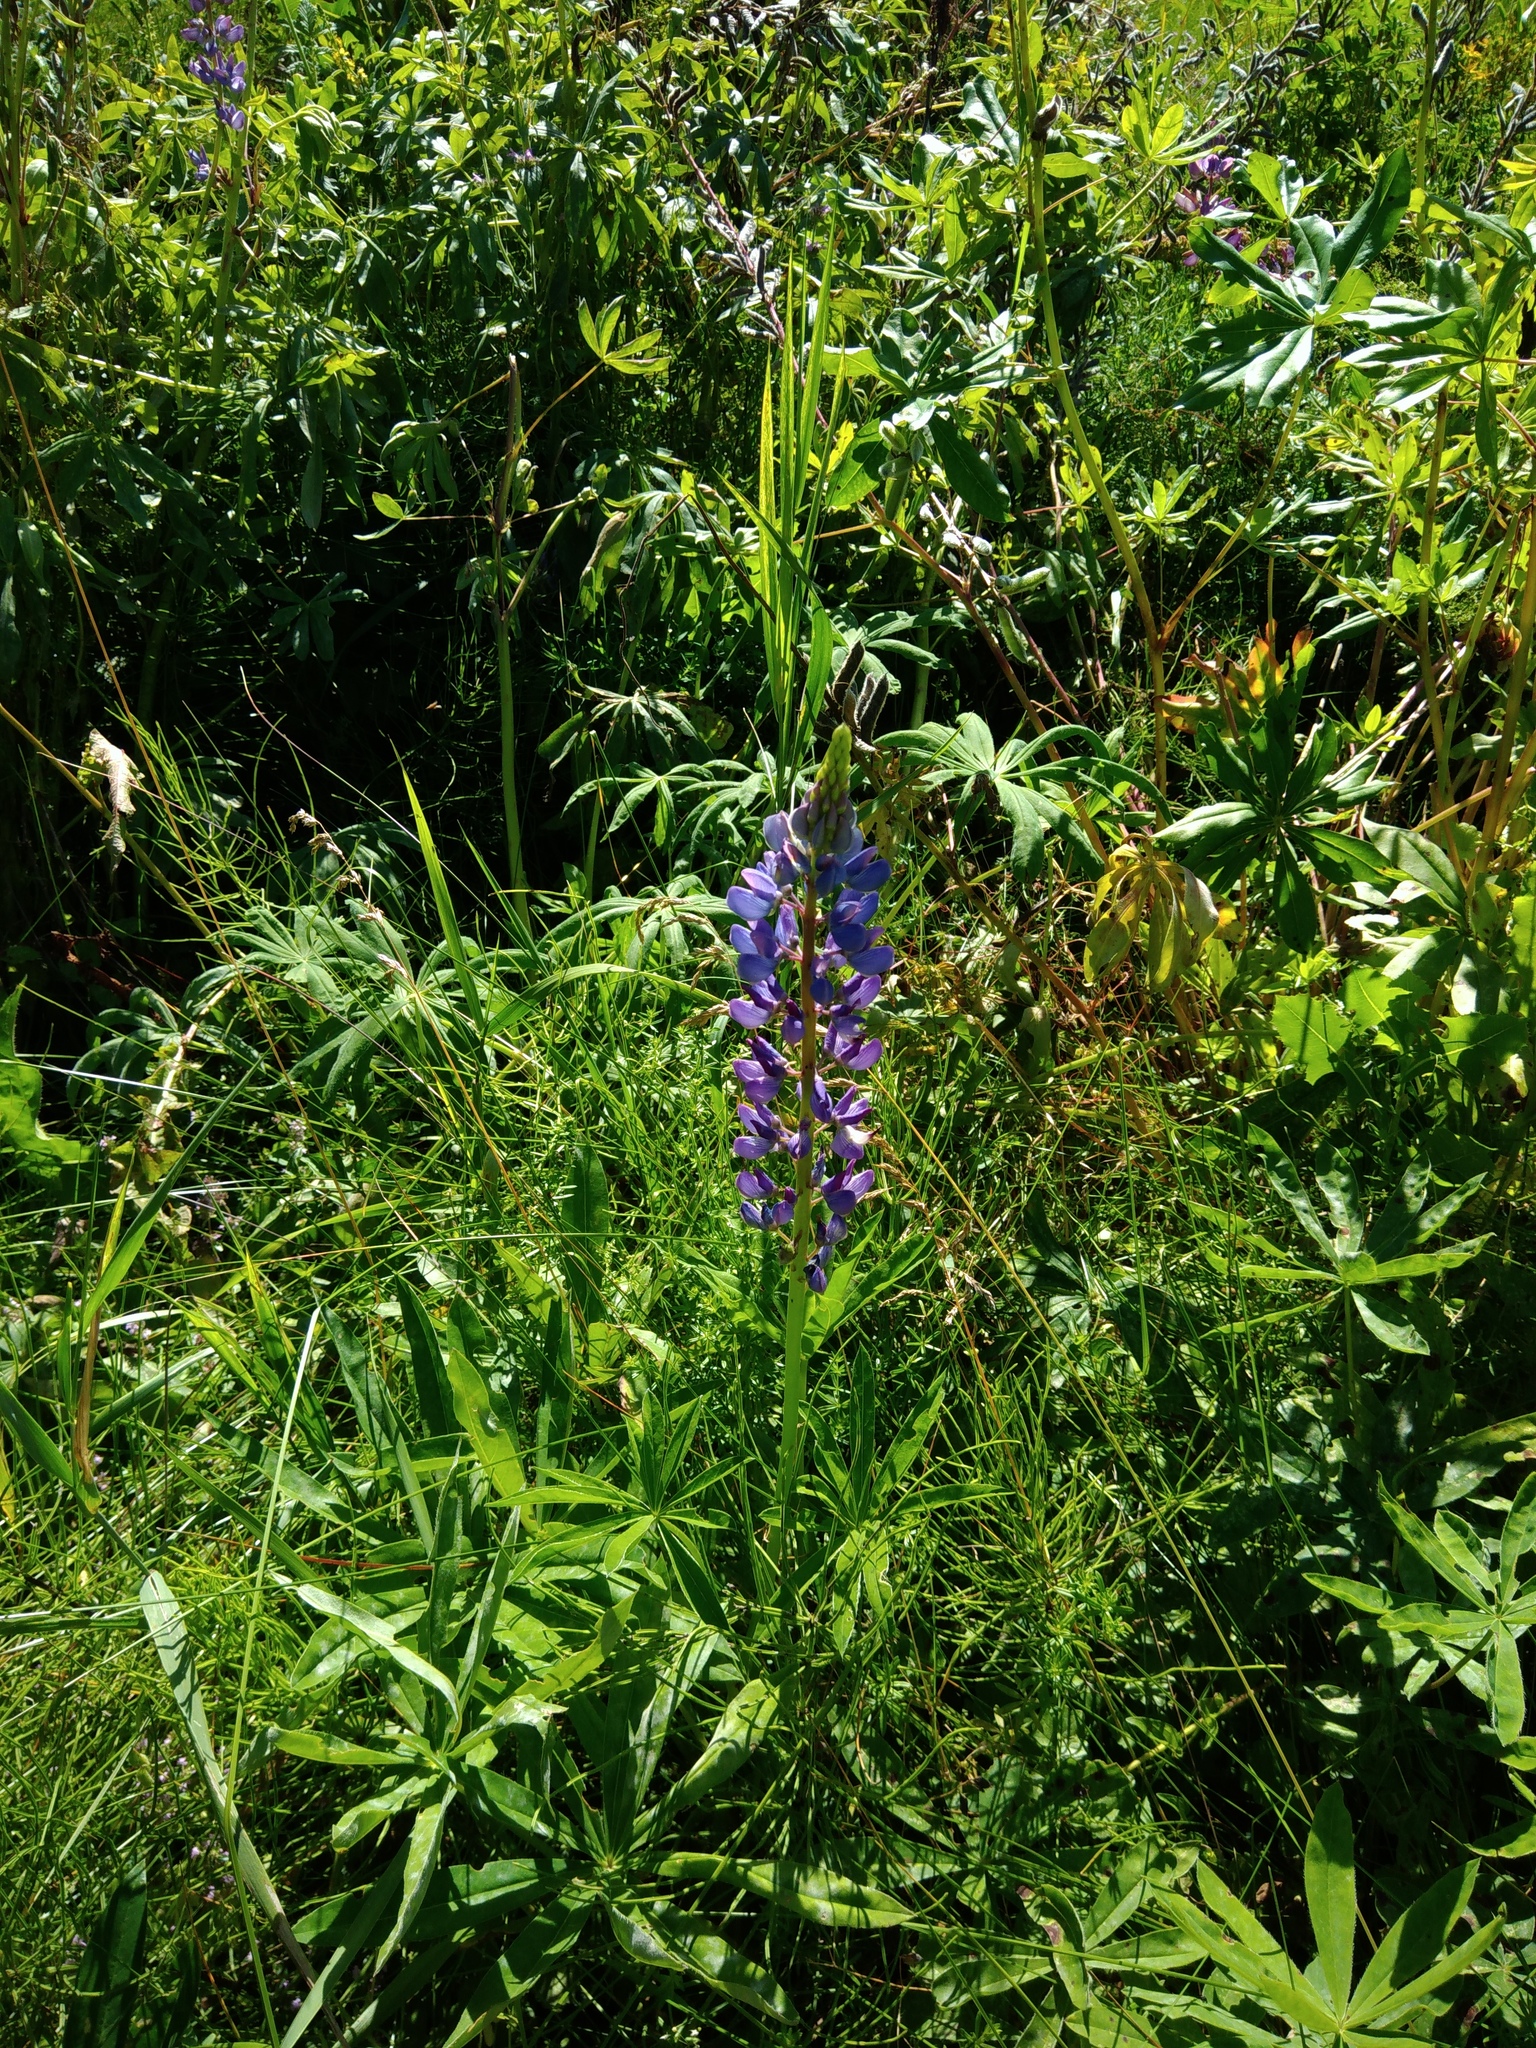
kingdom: Plantae
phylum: Tracheophyta
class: Magnoliopsida
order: Fabales
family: Fabaceae
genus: Lupinus
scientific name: Lupinus polyphyllus
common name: Garden lupin
